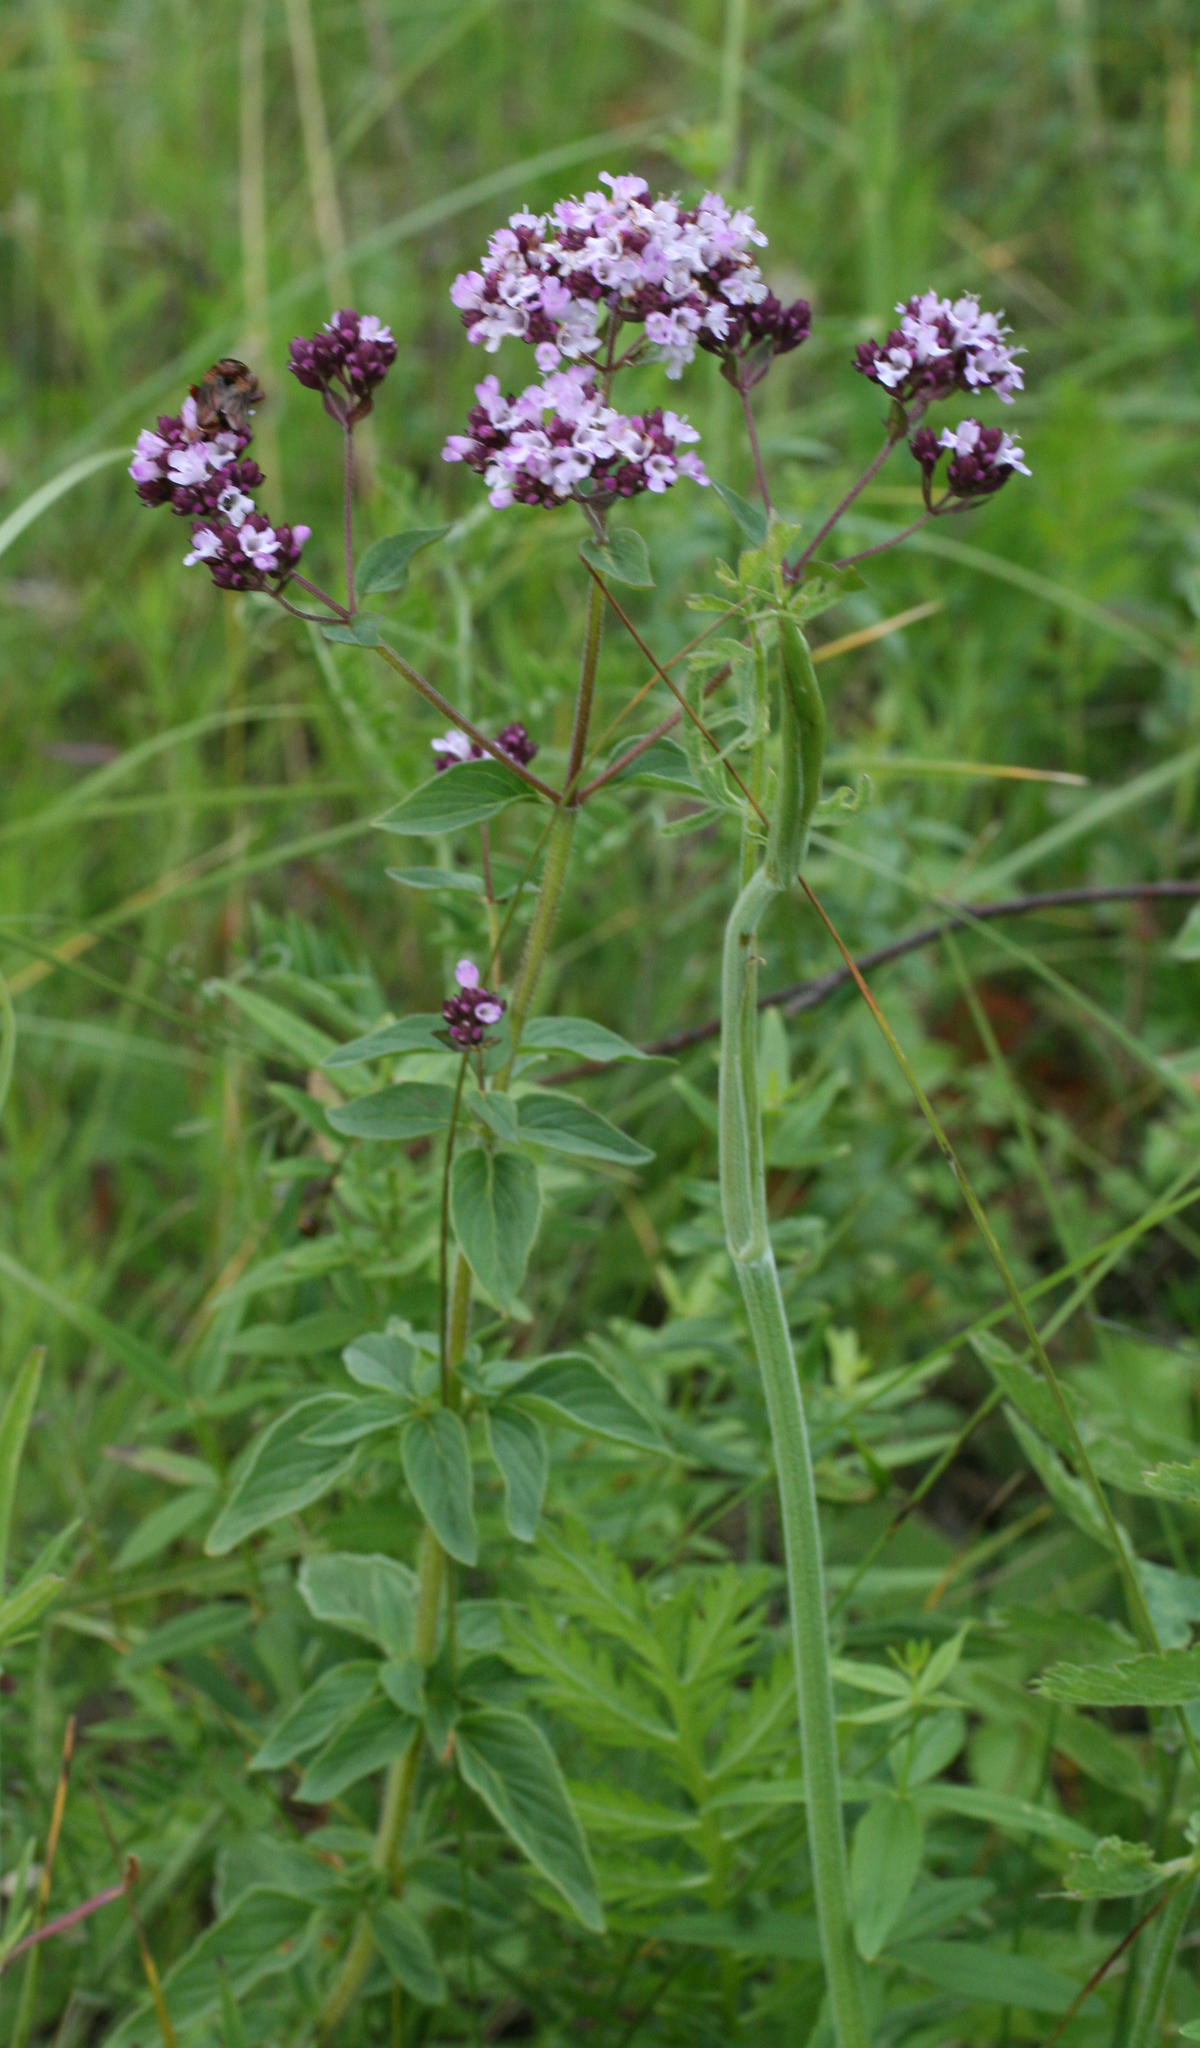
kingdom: Plantae
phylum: Tracheophyta
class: Magnoliopsida
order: Lamiales
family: Lamiaceae
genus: Origanum
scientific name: Origanum vulgare
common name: Wild marjoram
